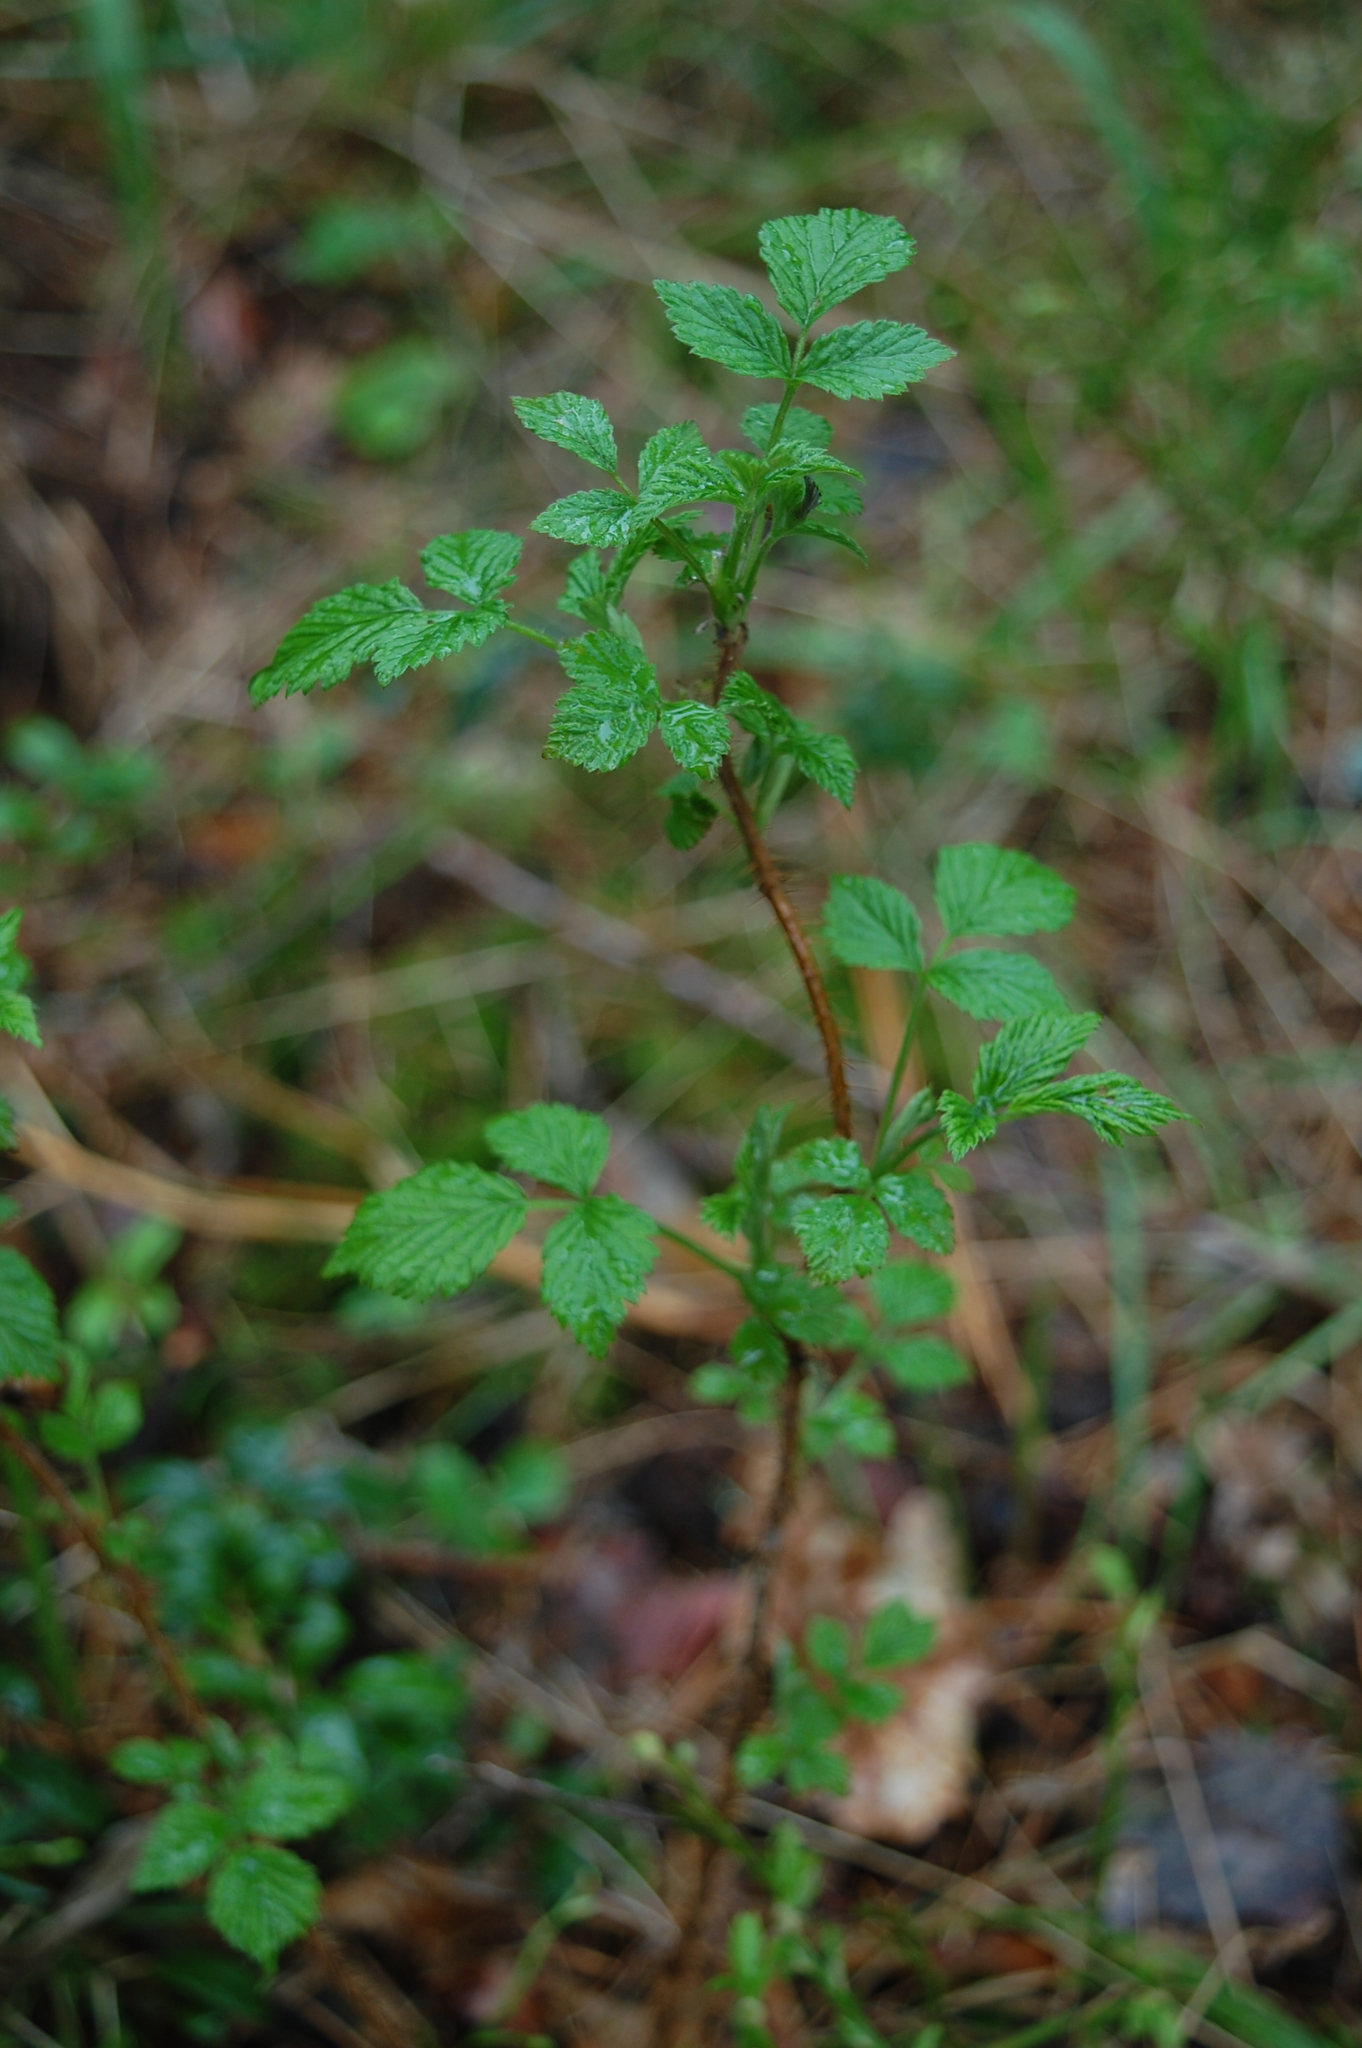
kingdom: Plantae
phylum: Tracheophyta
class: Magnoliopsida
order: Rosales
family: Rosaceae
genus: Rubus
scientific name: Rubus idaeus
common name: Raspberry
